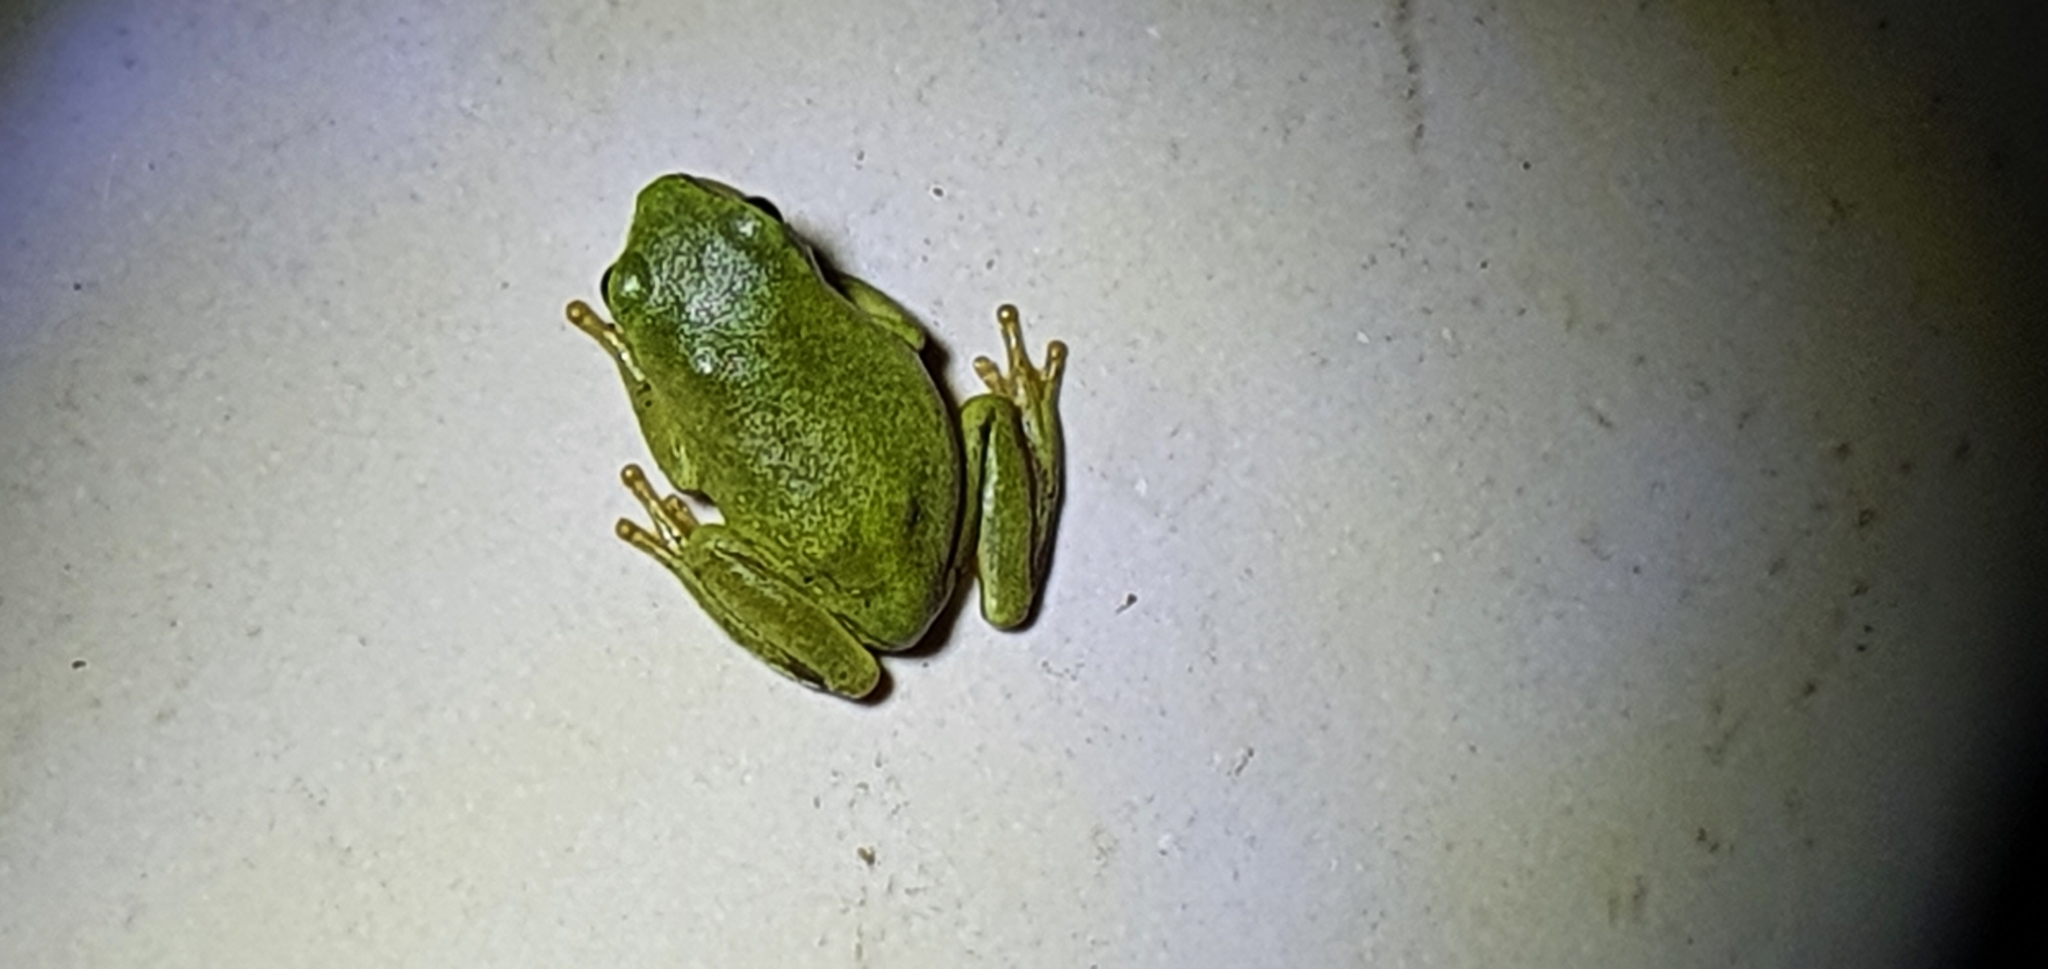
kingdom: Animalia
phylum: Chordata
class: Amphibia
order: Anura
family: Pelodryadidae
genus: Ranoidea
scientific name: Ranoidea caerulea
